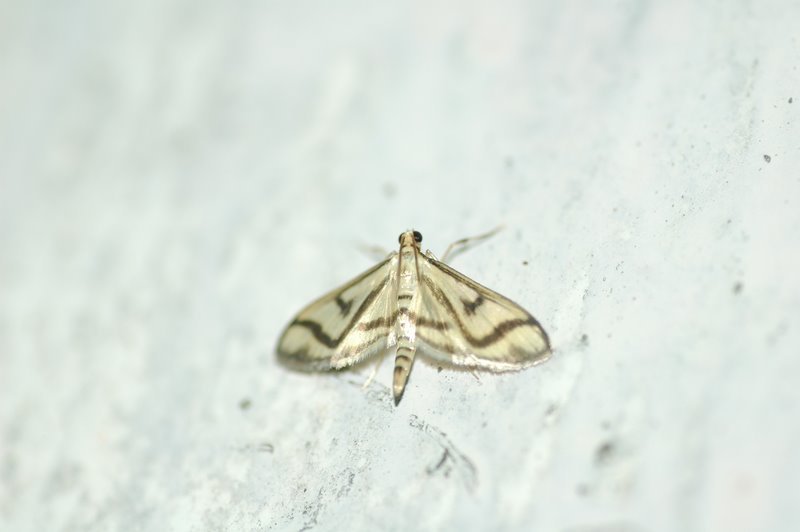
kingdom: Animalia
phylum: Arthropoda
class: Insecta
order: Lepidoptera
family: Crambidae
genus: Perisyntrocha
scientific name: Perisyntrocha ossealis
